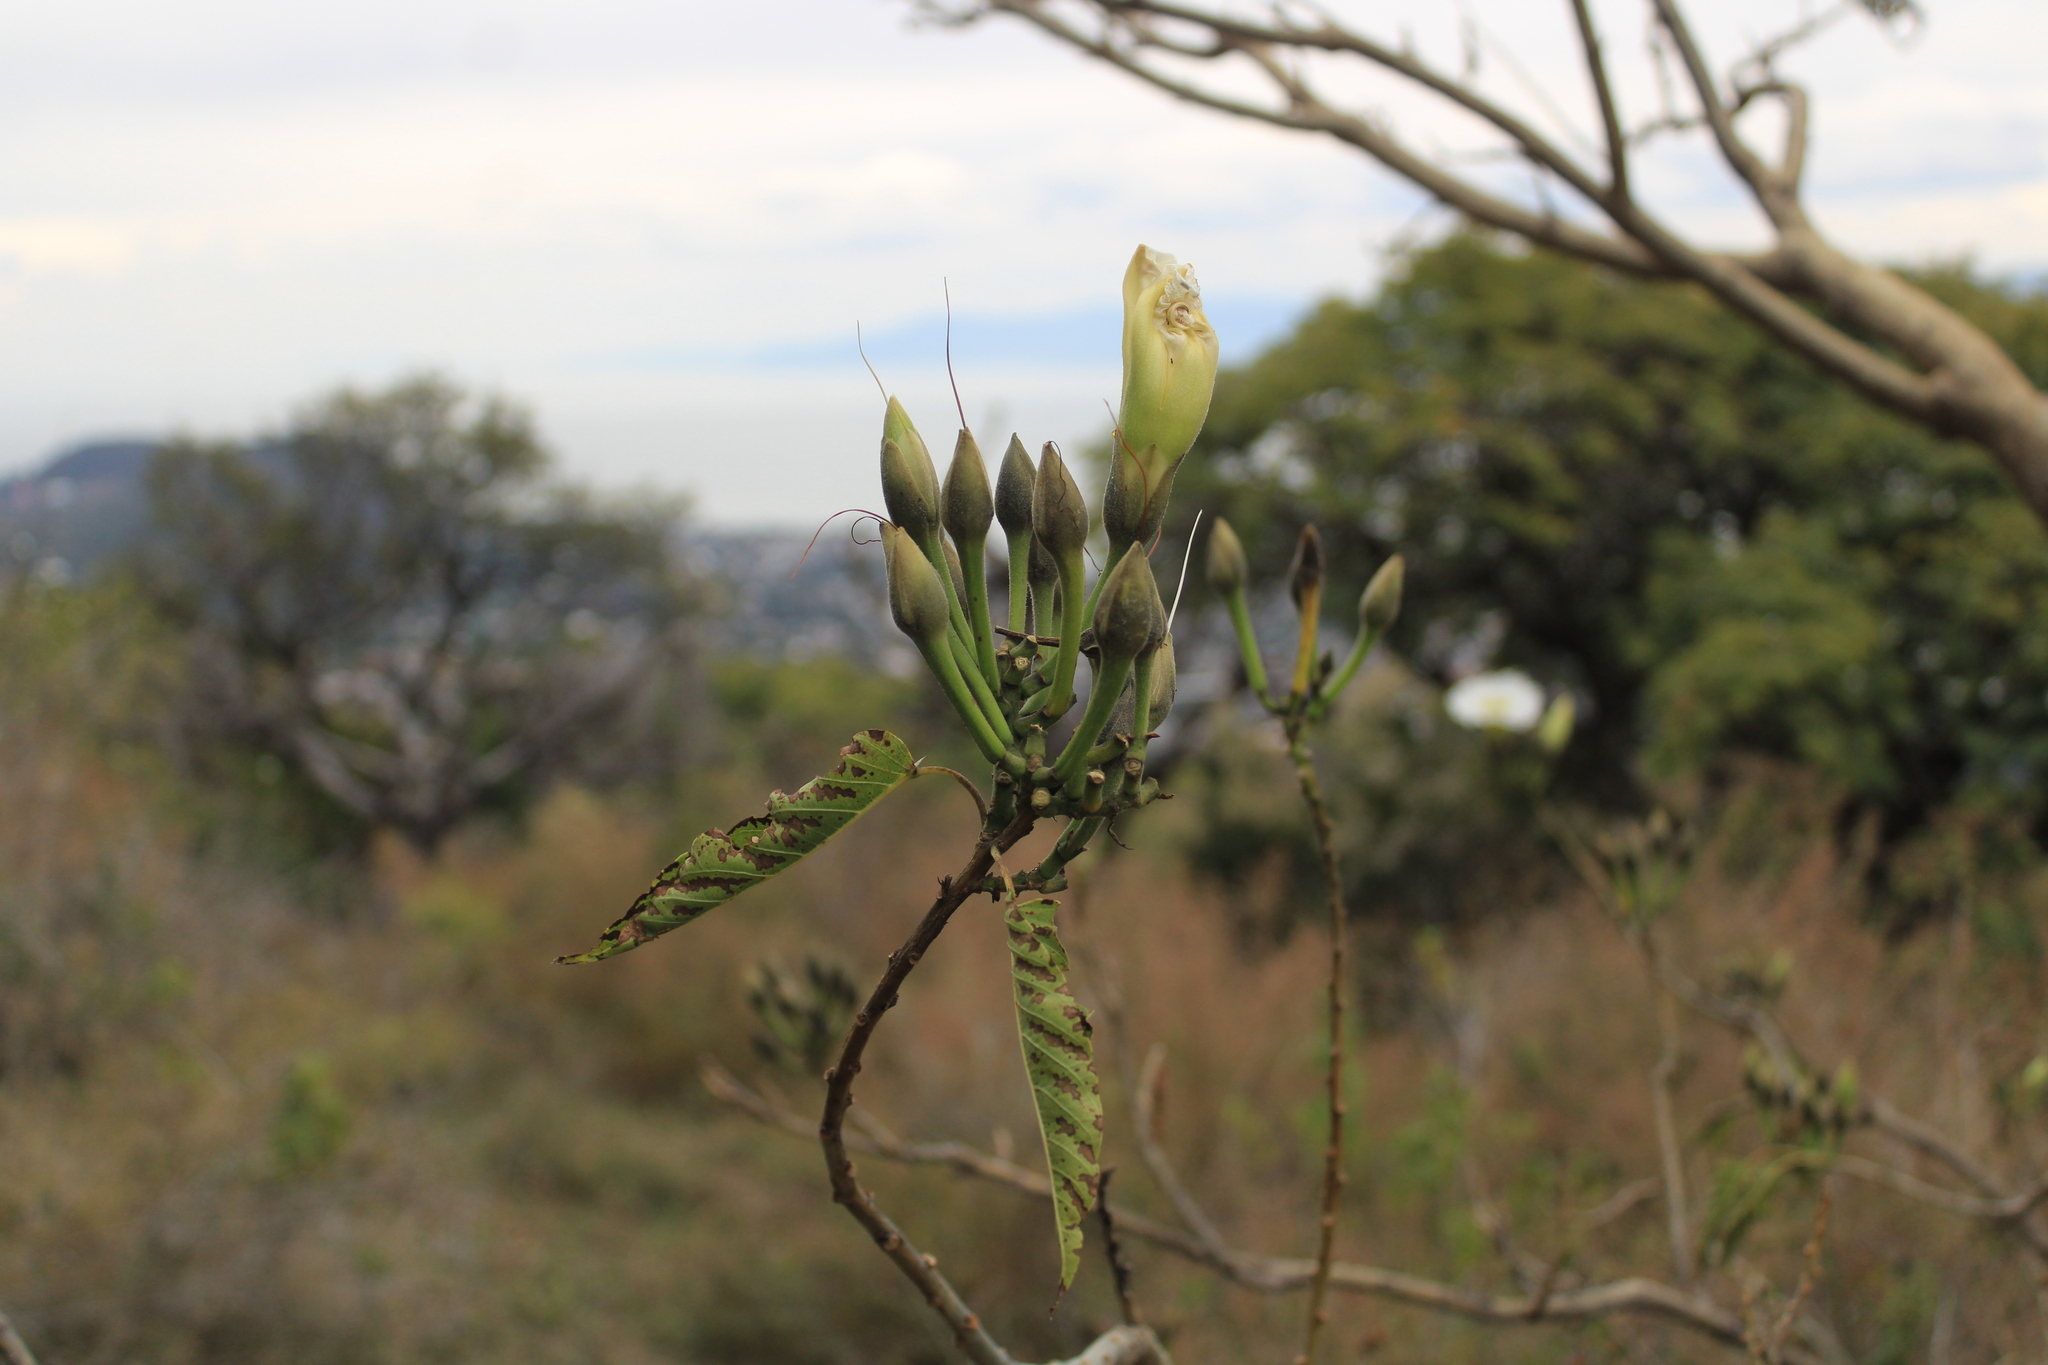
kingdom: Plantae
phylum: Tracheophyta
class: Magnoliopsida
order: Solanales
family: Convolvulaceae
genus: Ipomoea
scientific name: Ipomoea intrapilosa
